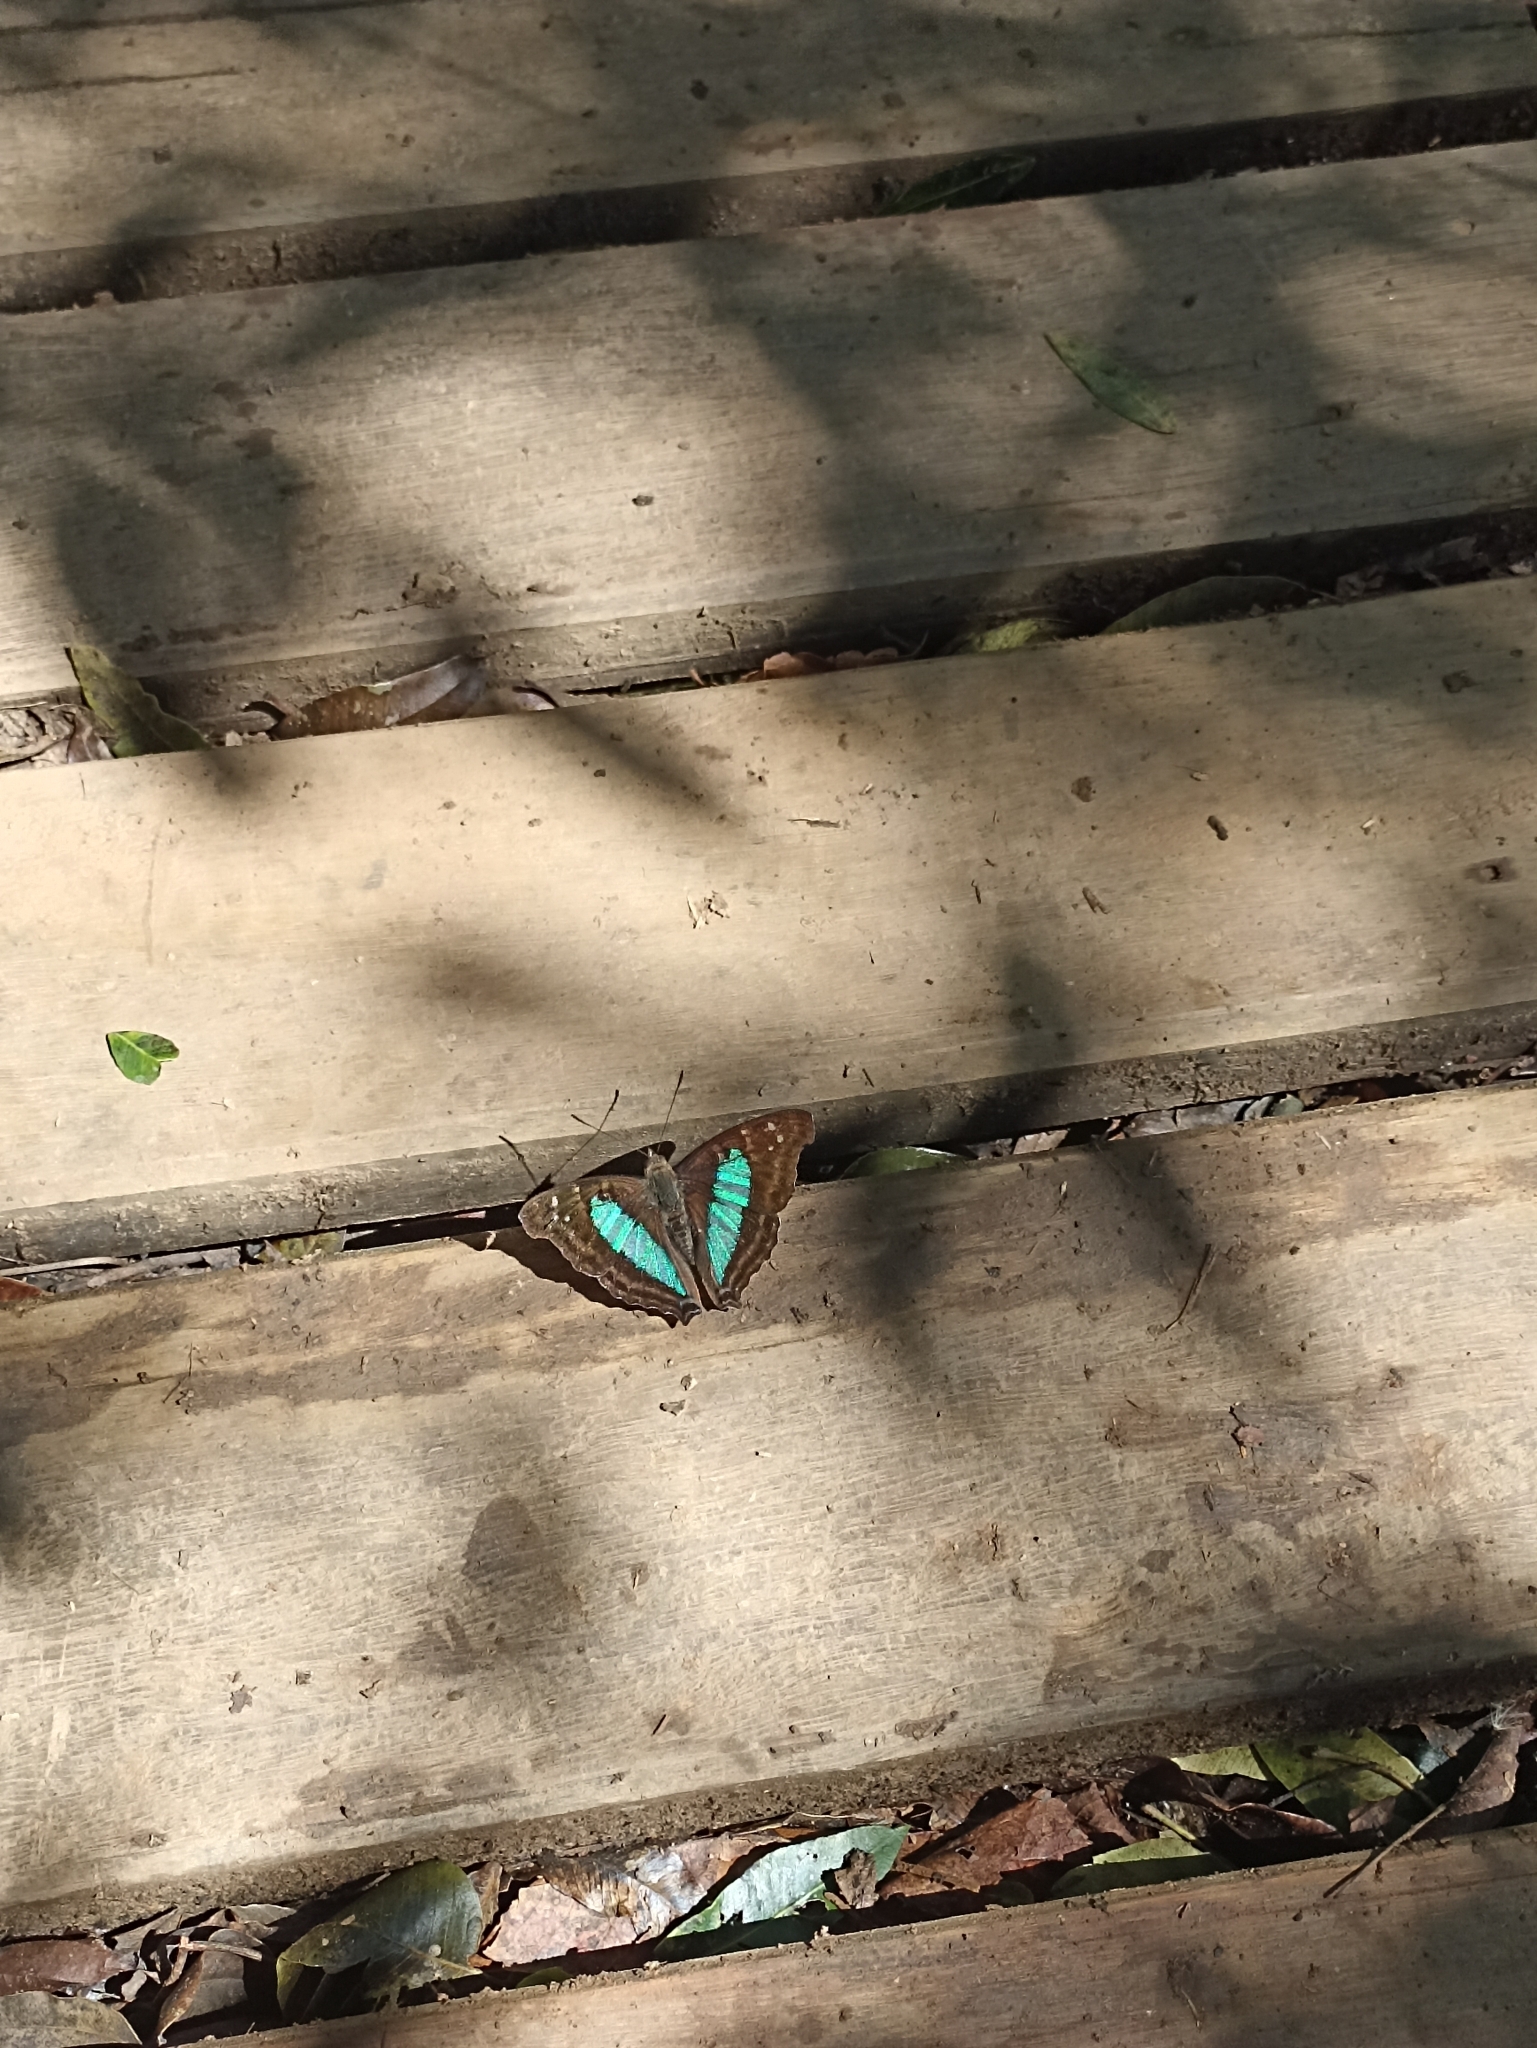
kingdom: Animalia
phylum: Arthropoda
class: Insecta
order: Lepidoptera
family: Nymphalidae
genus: Doxocopa
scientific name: Doxocopa laurentia
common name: Turquoise emperor
